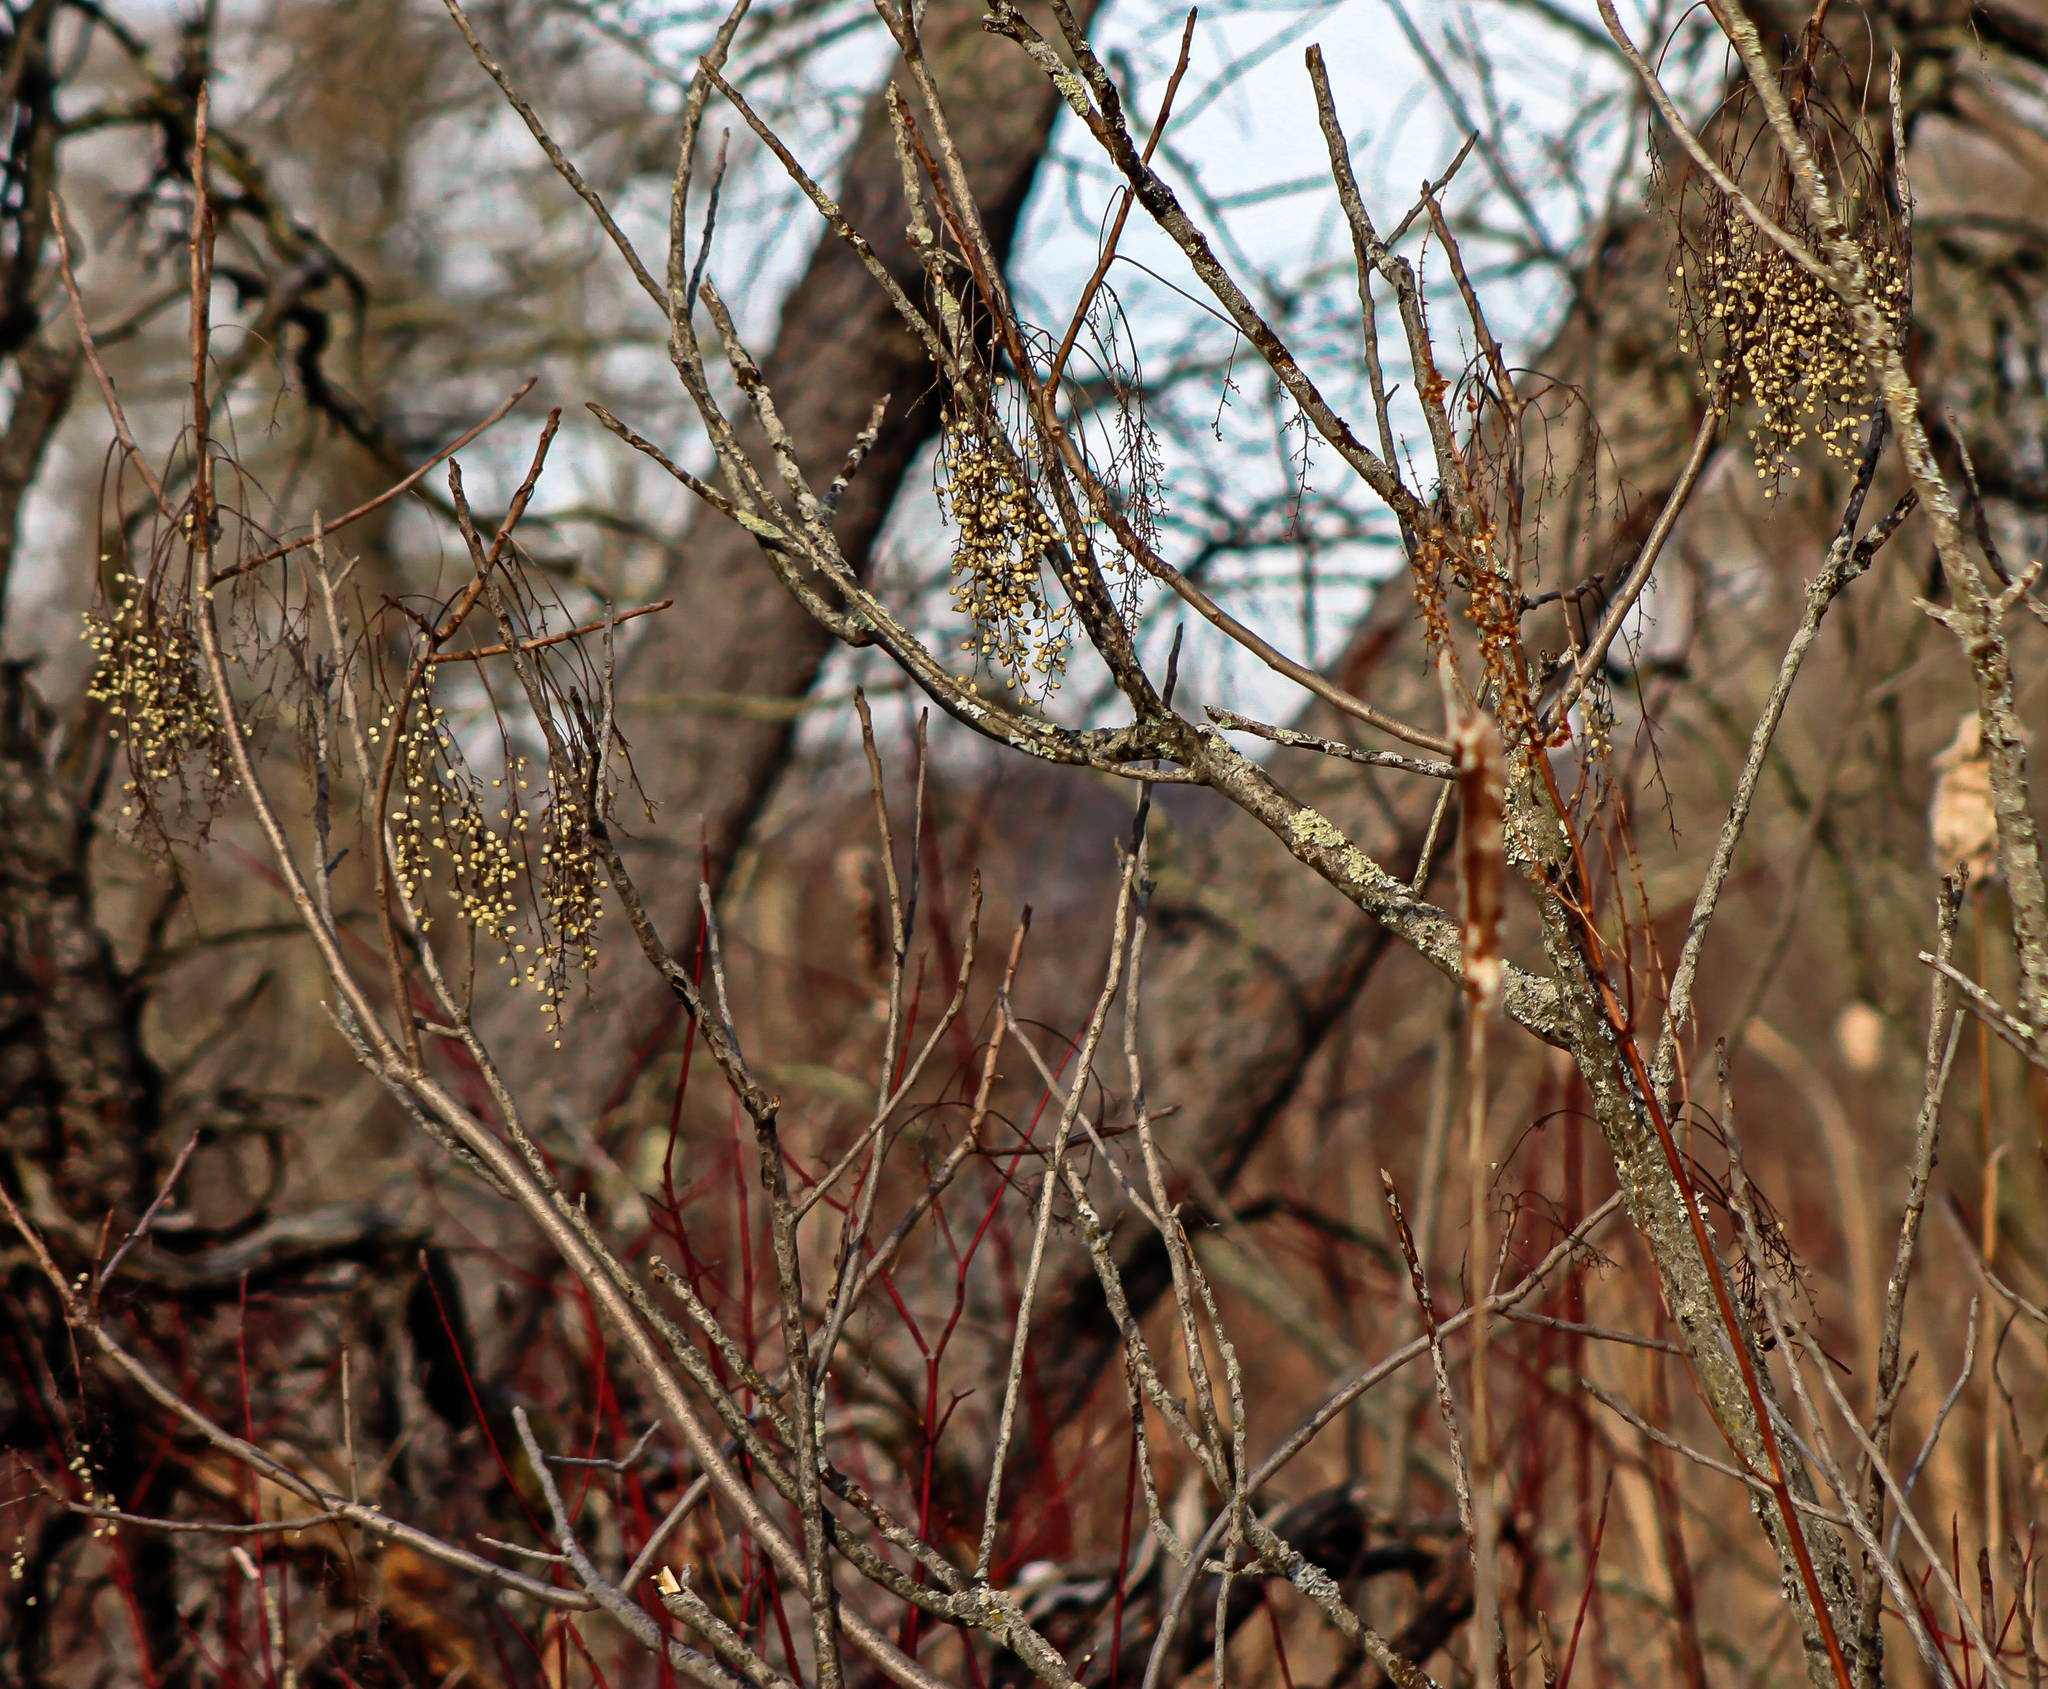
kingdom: Plantae
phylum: Tracheophyta
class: Magnoliopsida
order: Sapindales
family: Anacardiaceae
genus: Toxicodendron
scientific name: Toxicodendron vernix
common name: Poison sumac
